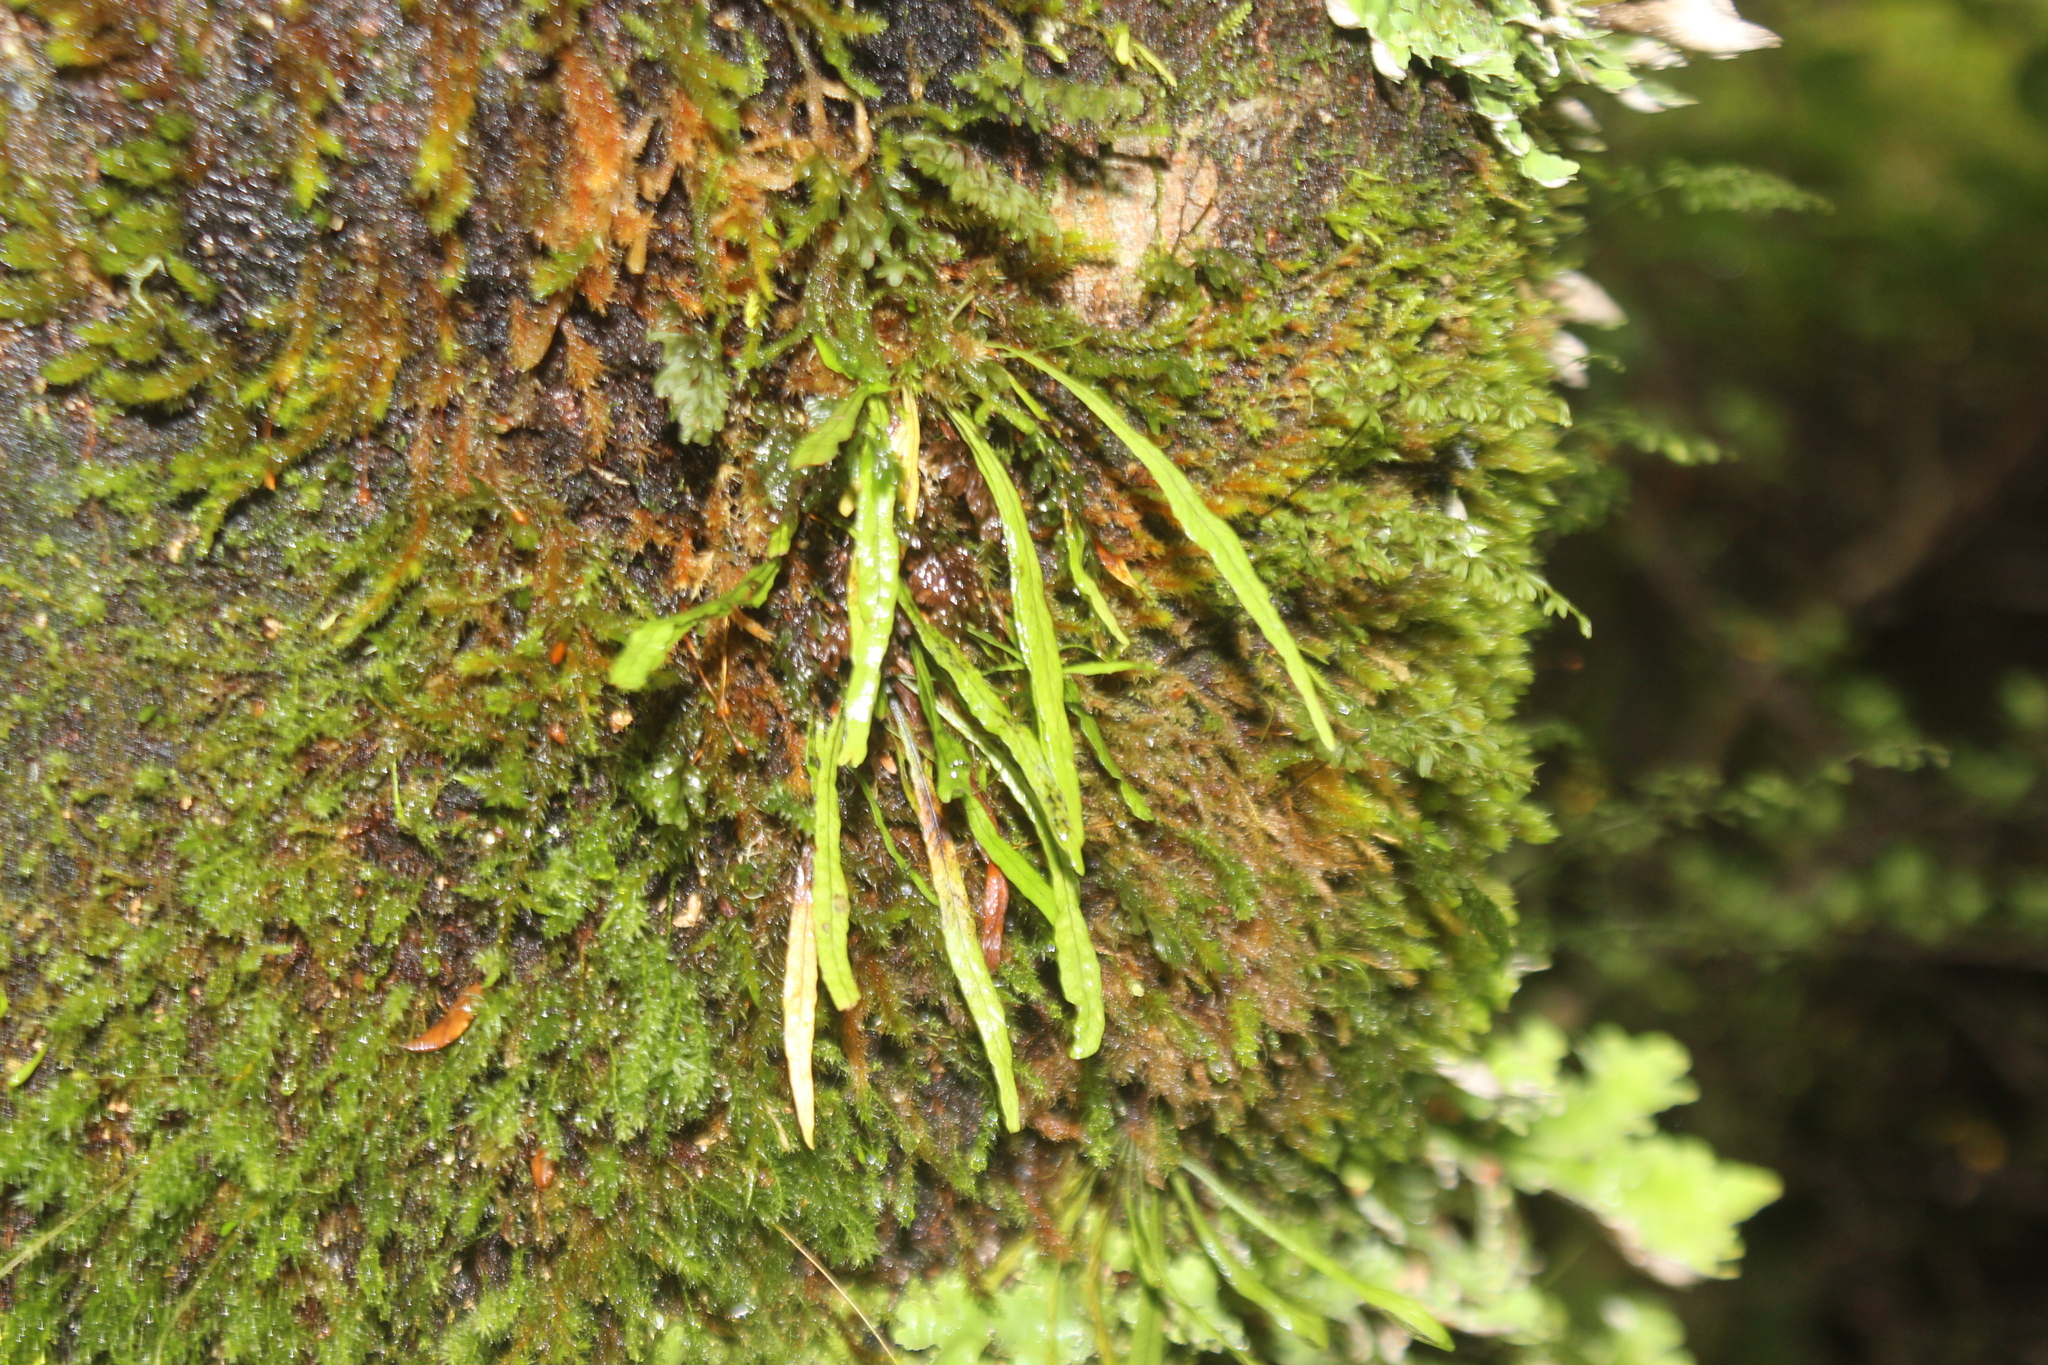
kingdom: Plantae
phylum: Tracheophyta
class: Polypodiopsida
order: Polypodiales
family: Polypodiaceae
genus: Notogrammitis
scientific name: Notogrammitis angustifolia
